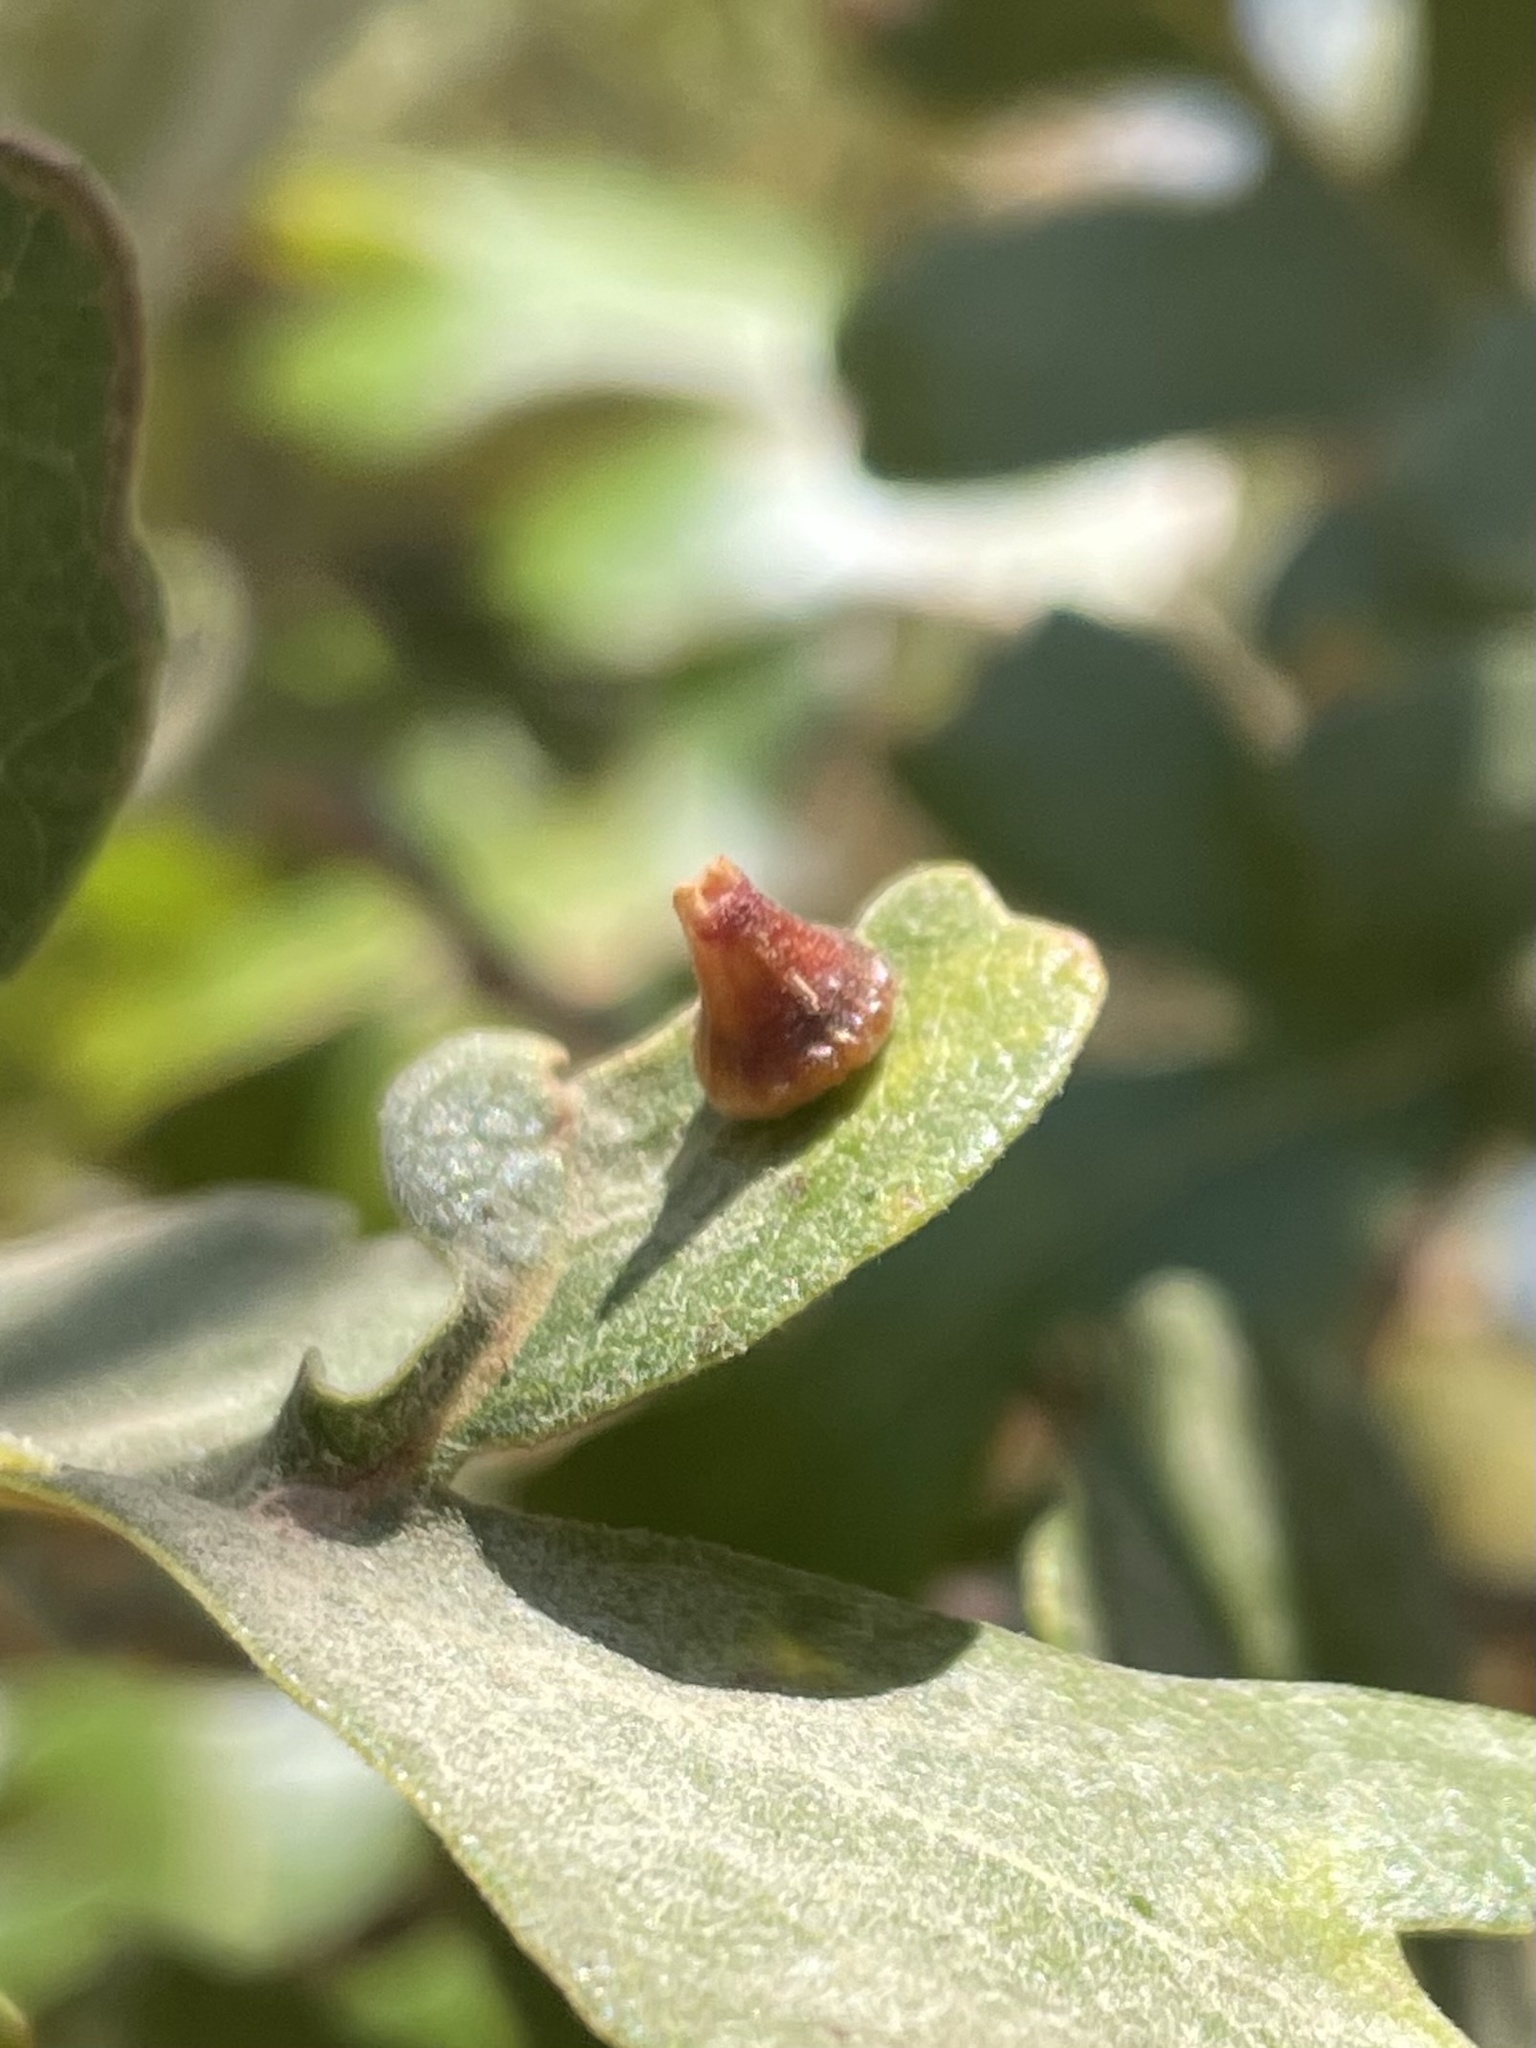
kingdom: Animalia
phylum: Arthropoda
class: Insecta
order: Hymenoptera
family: Cynipidae
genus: Andricus
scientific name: Andricus
